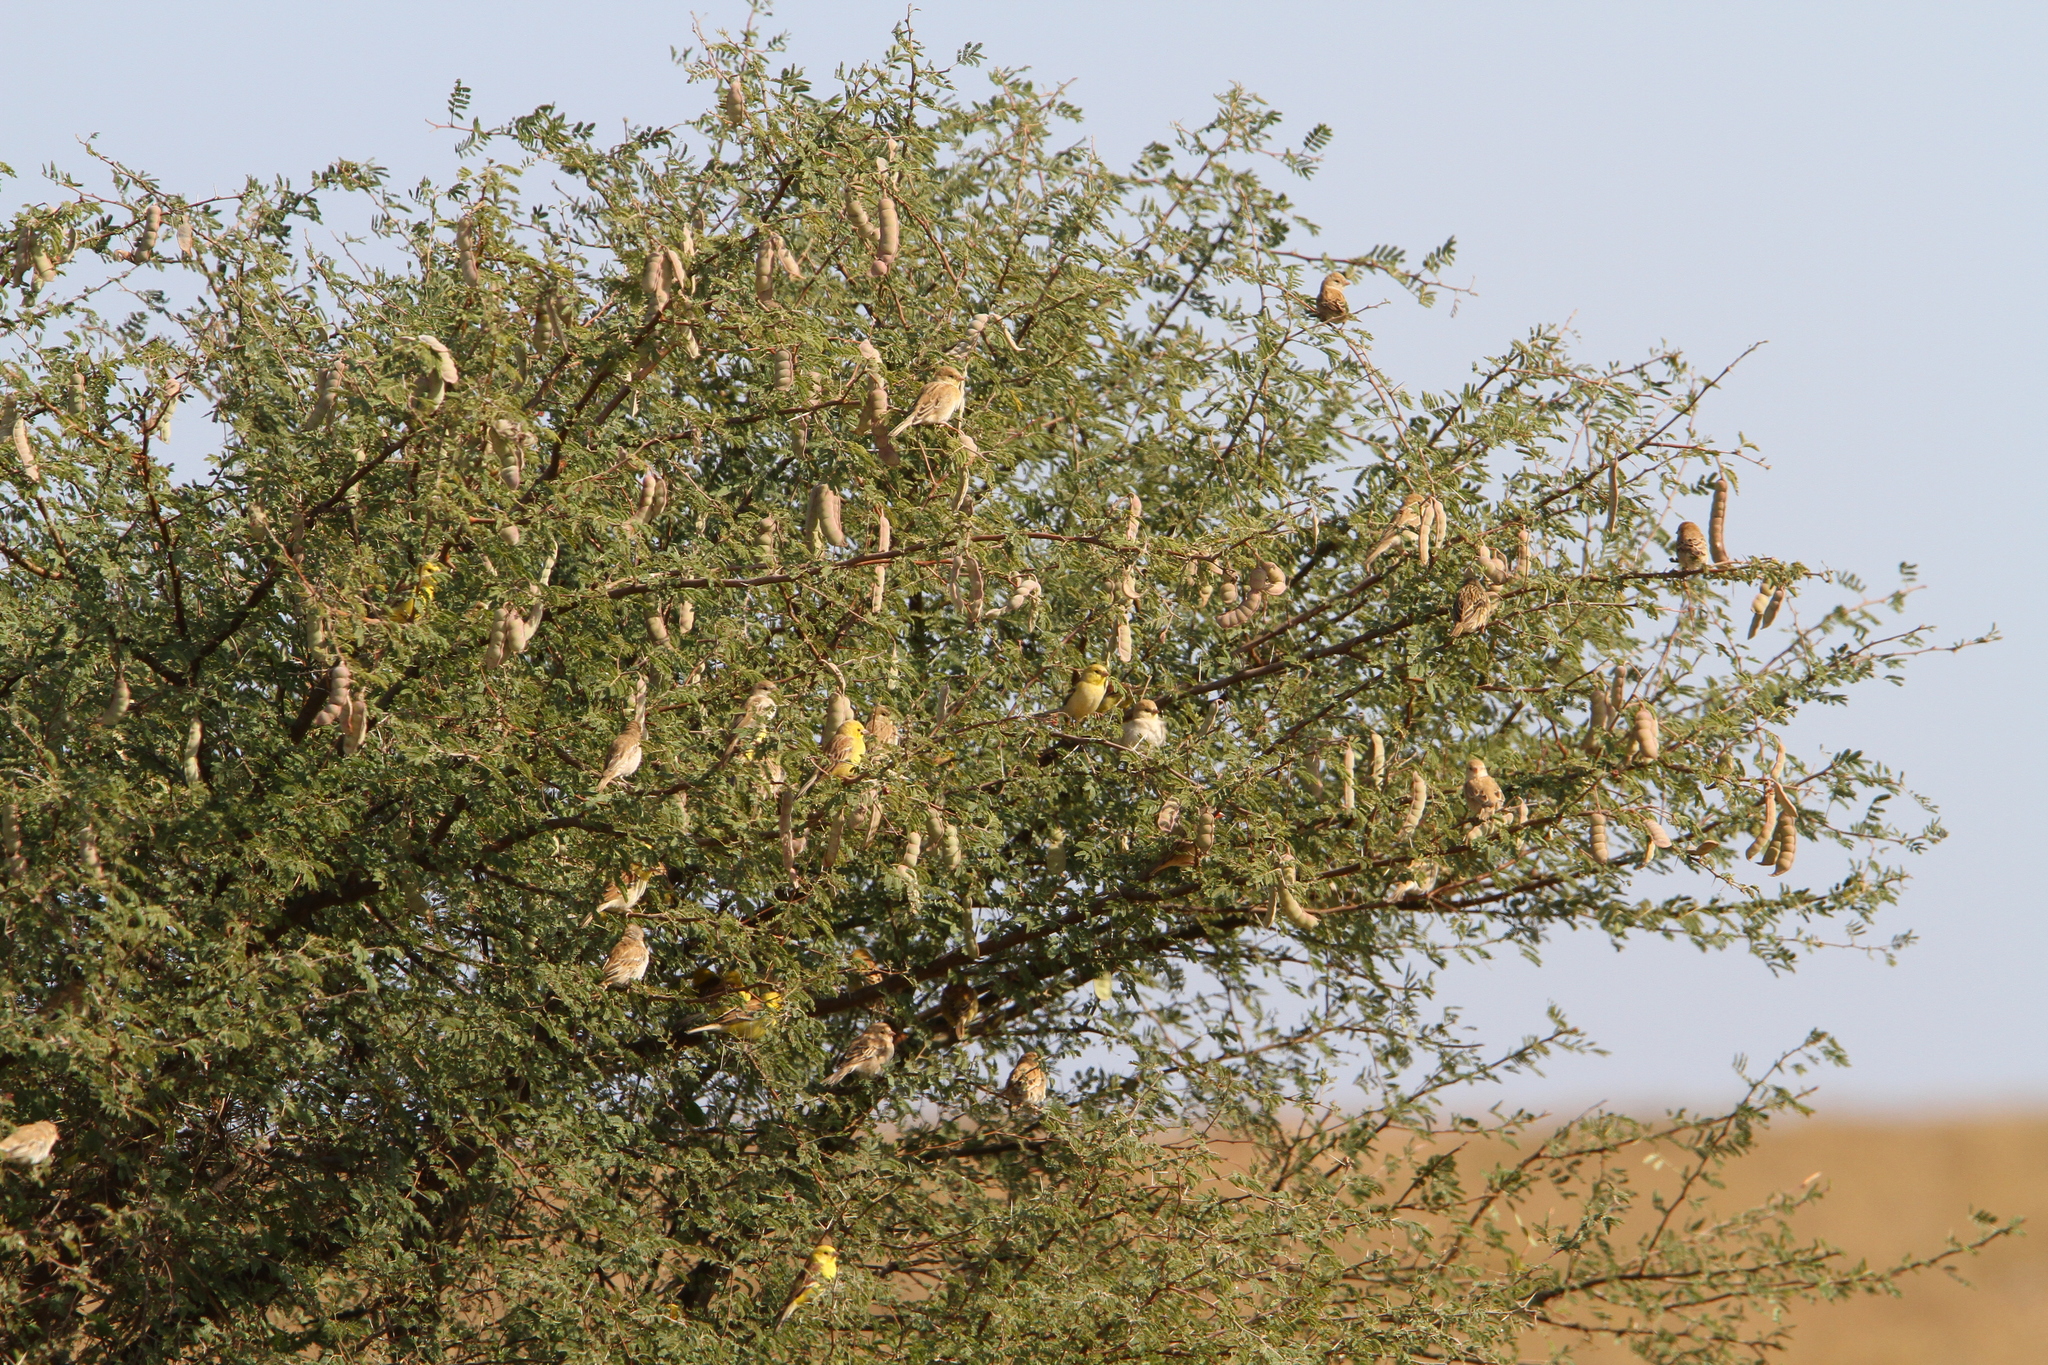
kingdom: Animalia
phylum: Chordata
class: Aves
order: Passeriformes
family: Passeridae
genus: Passer
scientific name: Passer luteus
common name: Sudan golden sparrow
